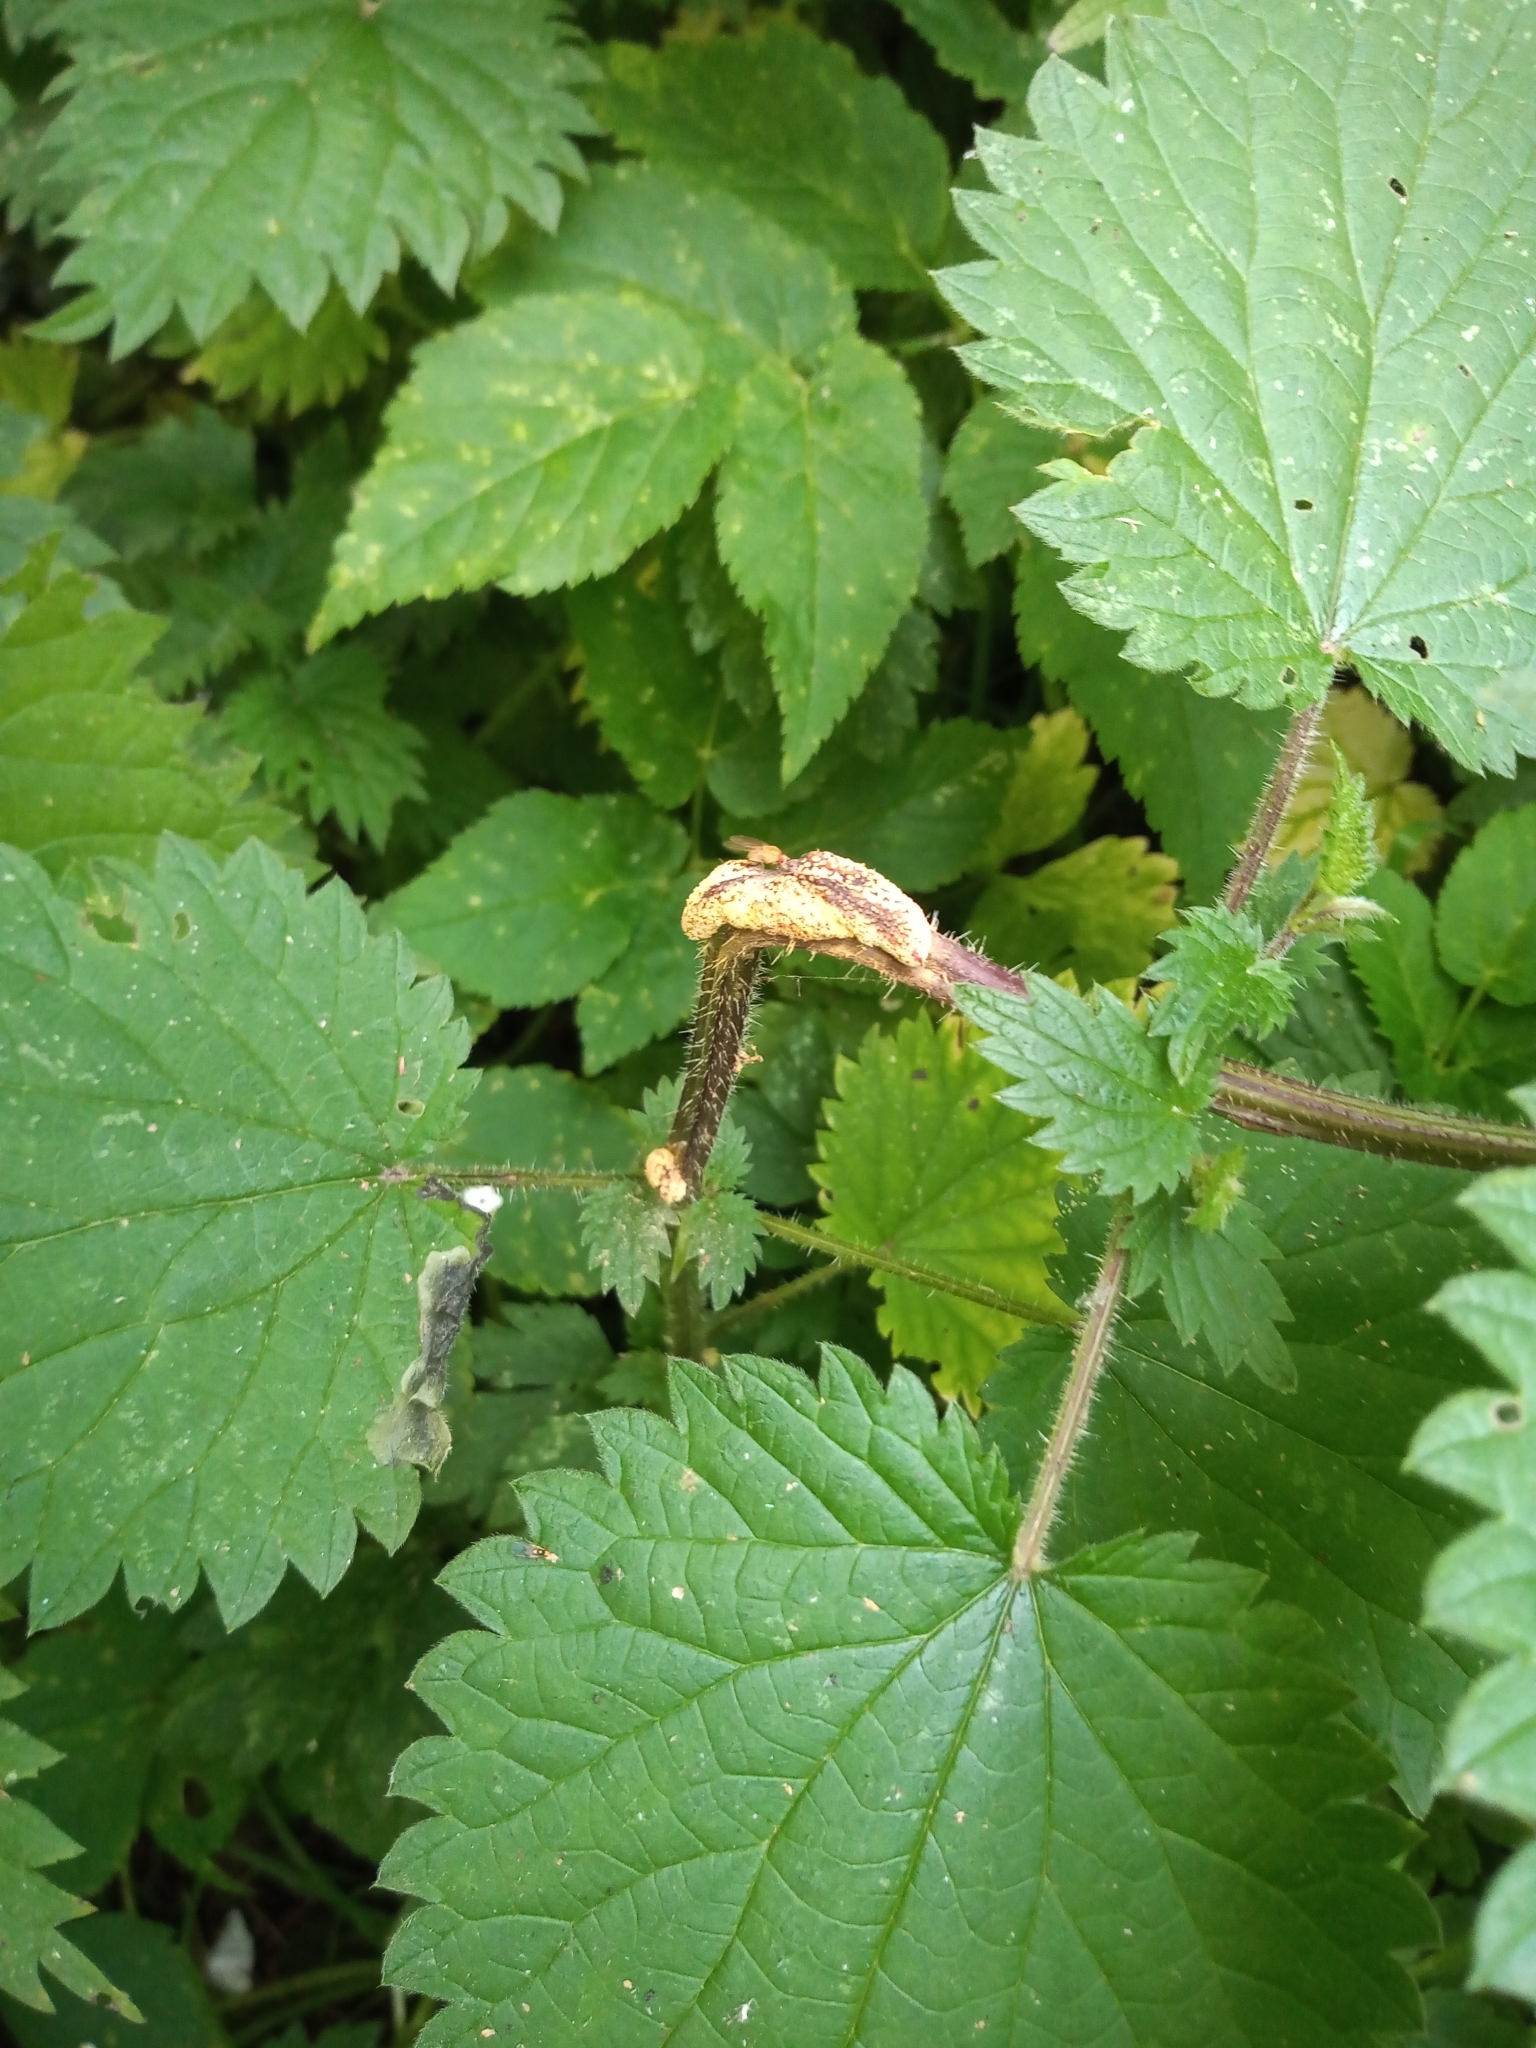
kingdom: Fungi
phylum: Basidiomycota
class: Pucciniomycetes
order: Pucciniales
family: Pucciniaceae
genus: Puccinia
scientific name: Puccinia urticata
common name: Nettle clustercup rust fungus
